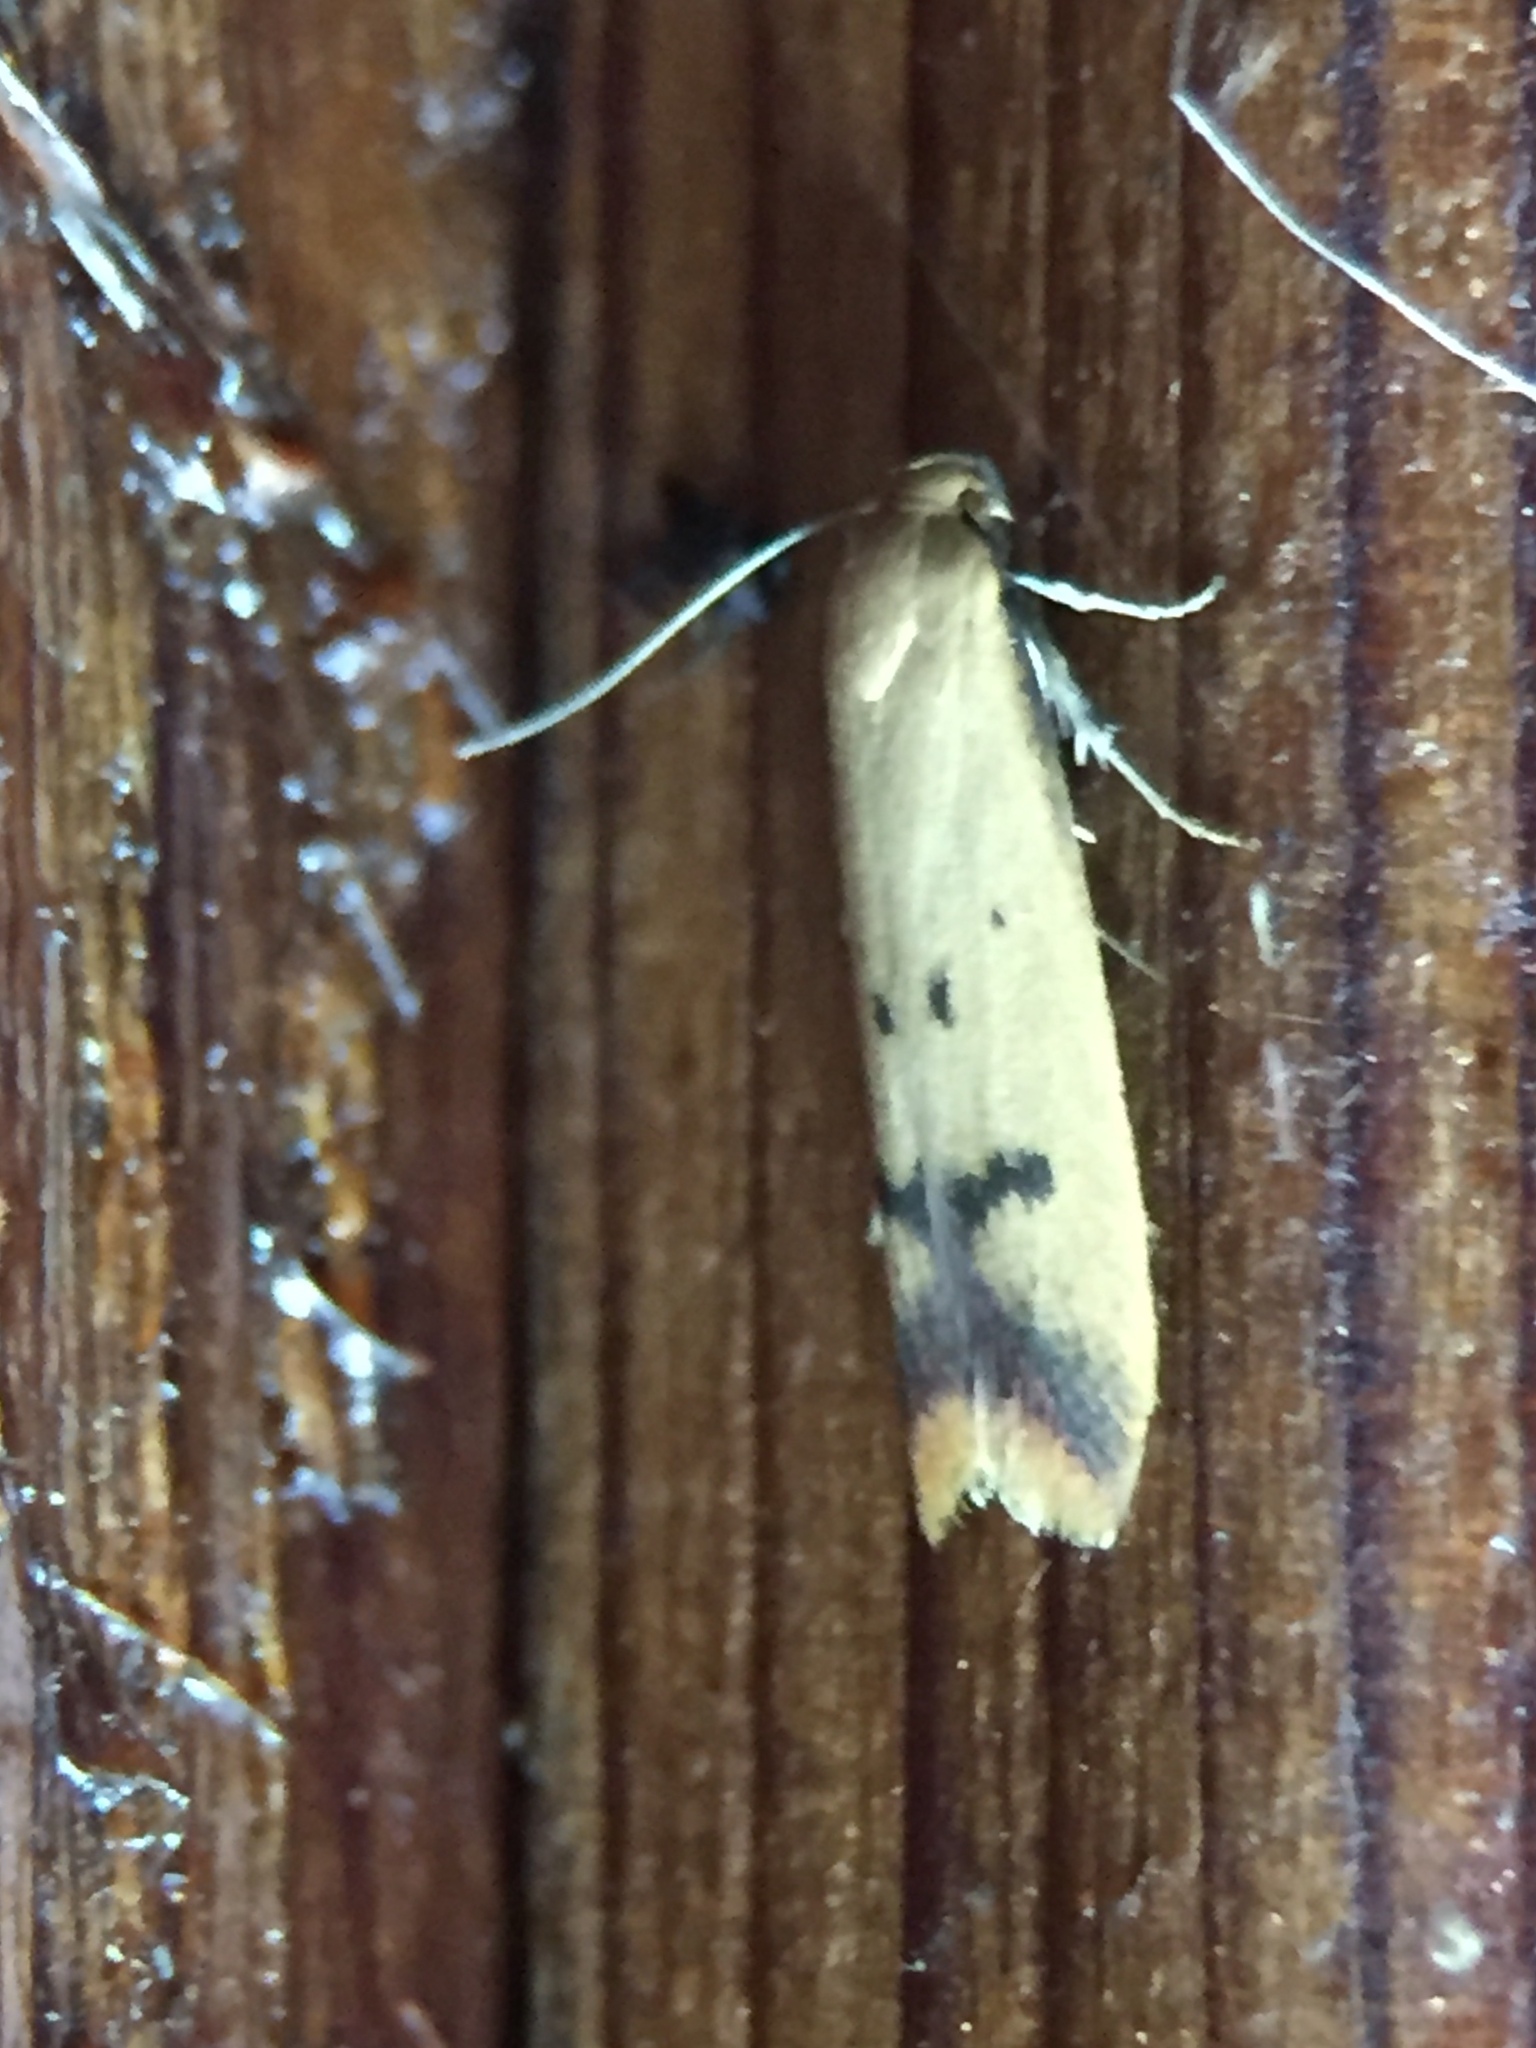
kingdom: Animalia
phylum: Arthropoda
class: Insecta
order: Lepidoptera
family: Oecophoridae
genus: Tachystola
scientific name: Tachystola hemisema
